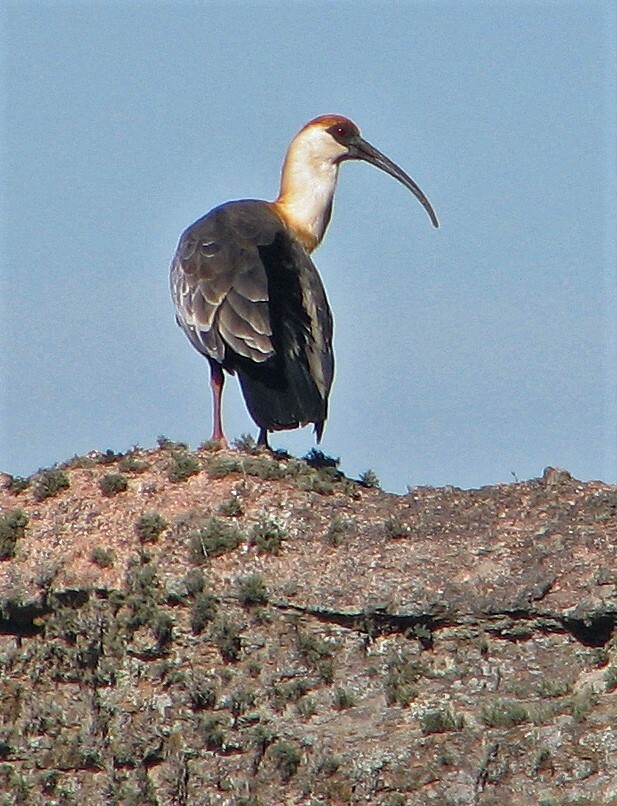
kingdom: Animalia
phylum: Chordata
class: Aves
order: Pelecaniformes
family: Threskiornithidae
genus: Theristicus
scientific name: Theristicus caudatus
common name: Buff-necked ibis
